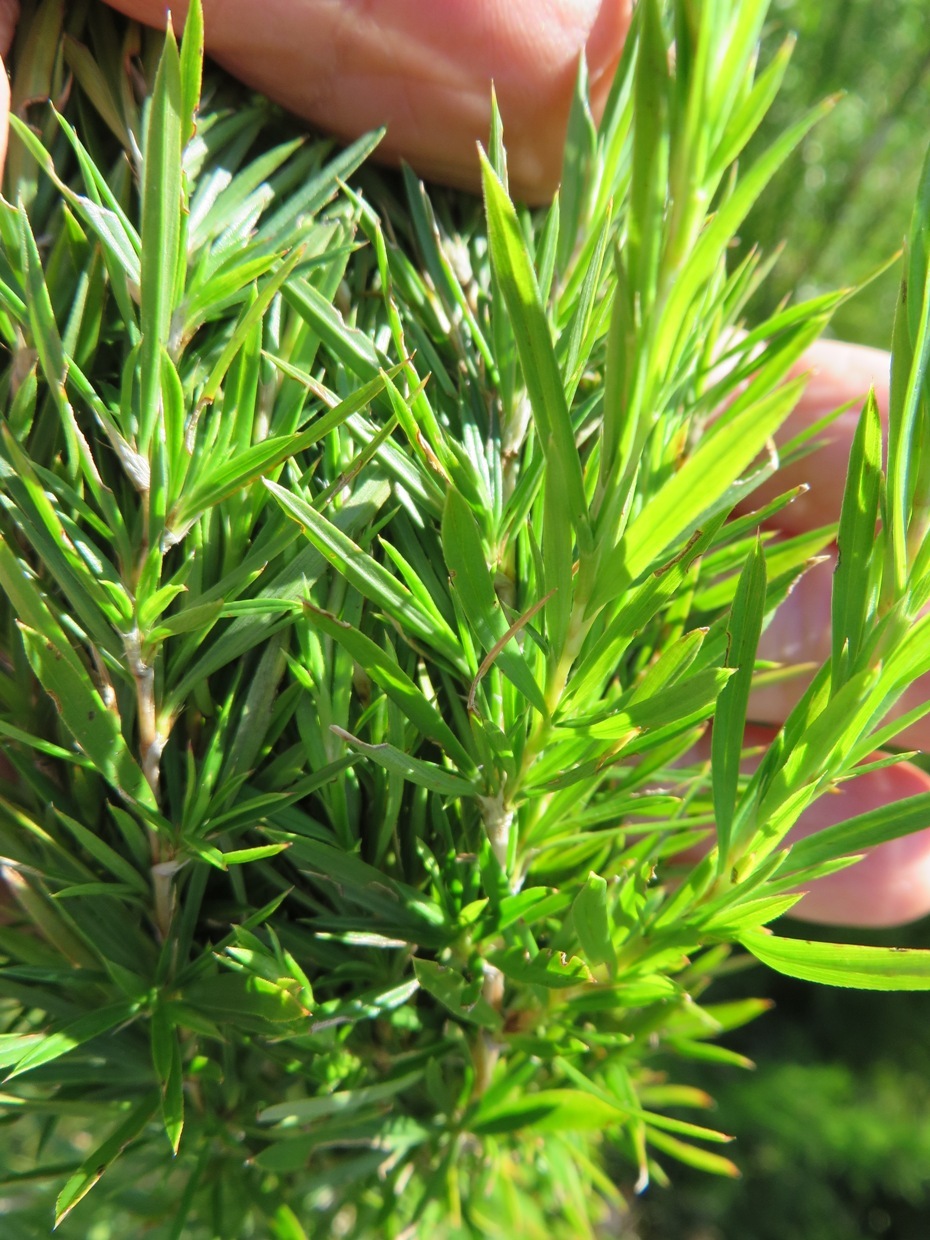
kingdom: Plantae
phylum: Tracheophyta
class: Magnoliopsida
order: Rosales
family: Rosaceae
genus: Cliffortia
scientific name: Cliffortia strobilifera
